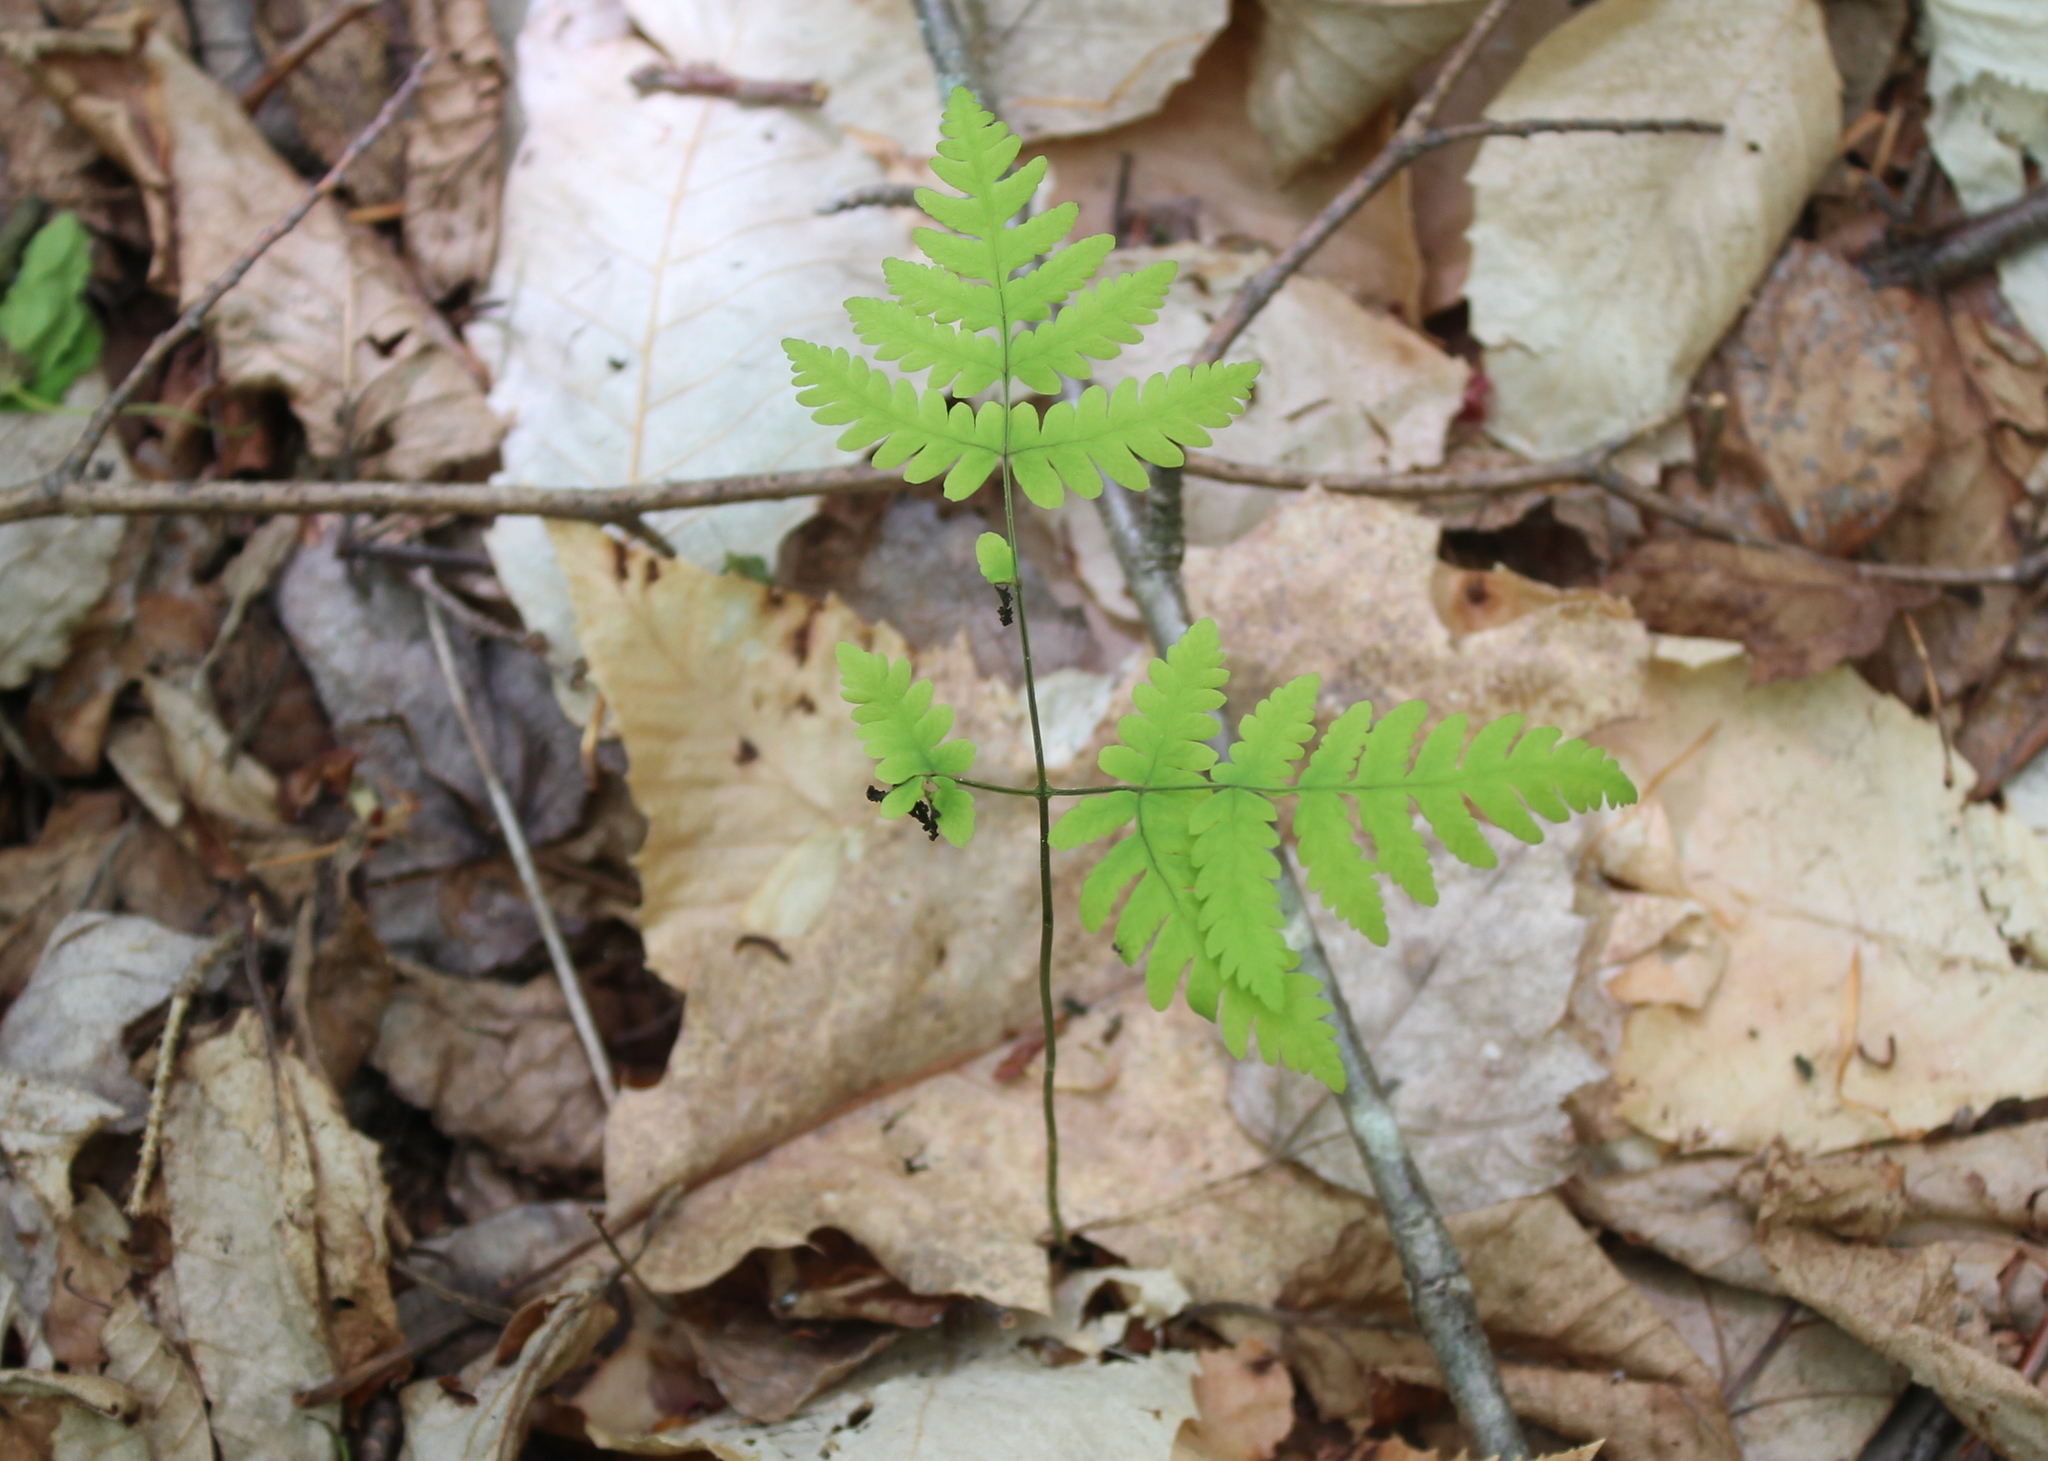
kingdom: Plantae
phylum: Tracheophyta
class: Polypodiopsida
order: Polypodiales
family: Cystopteridaceae
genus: Gymnocarpium
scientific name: Gymnocarpium dryopteris
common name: Oak fern
